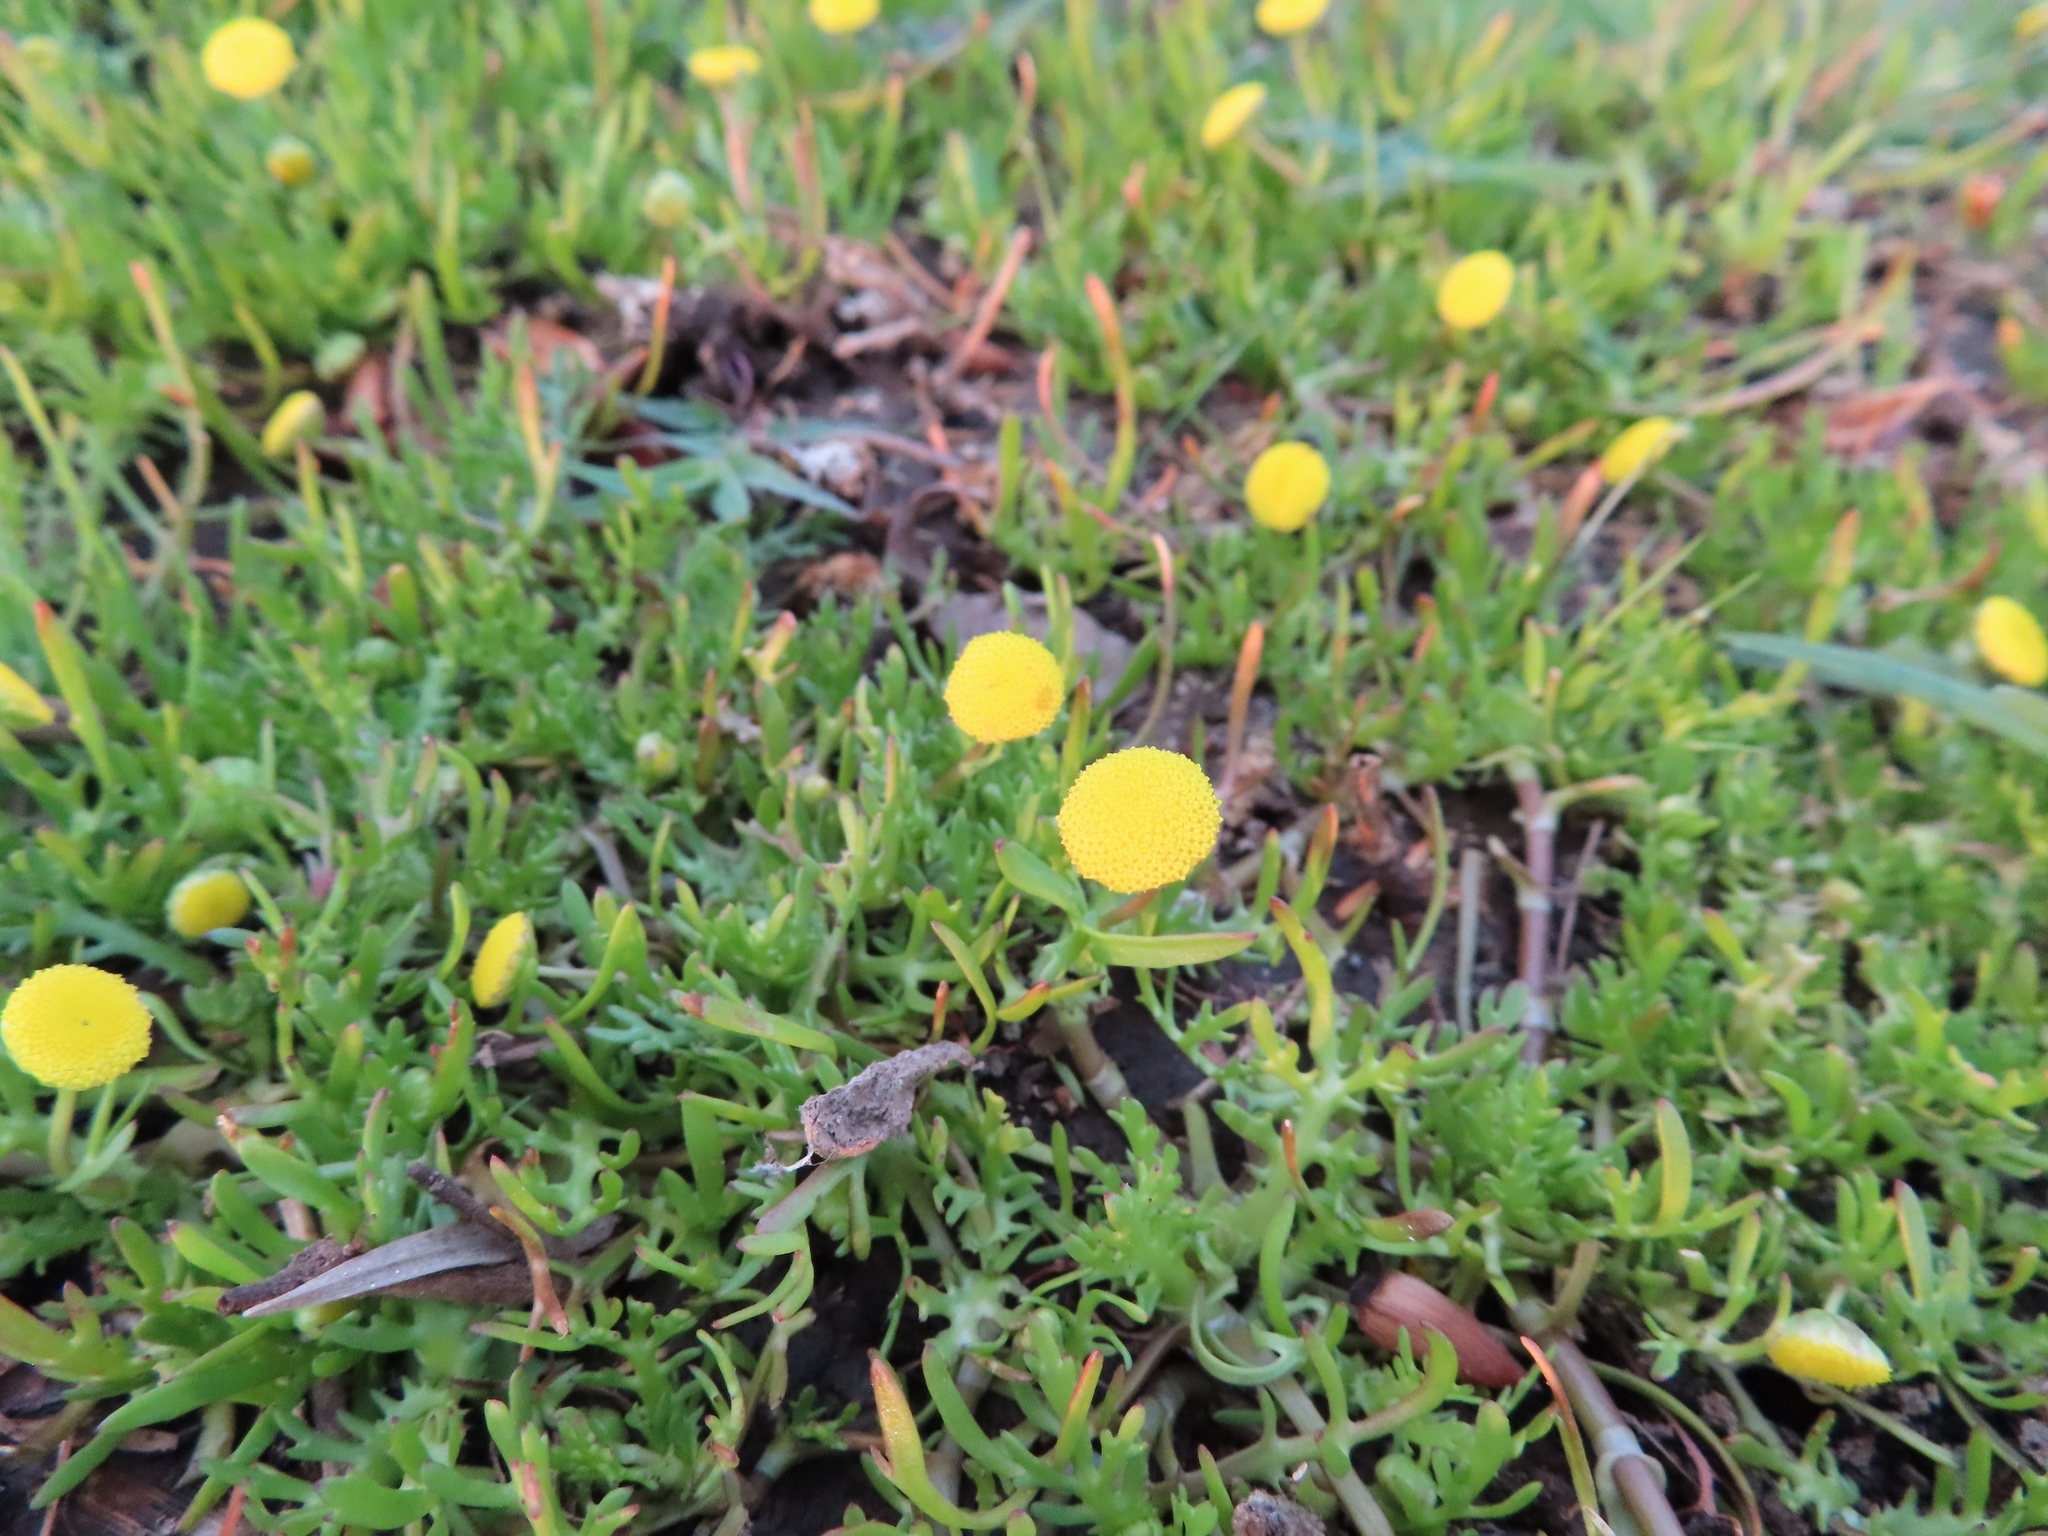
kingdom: Plantae
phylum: Tracheophyta
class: Magnoliopsida
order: Asterales
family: Asteraceae
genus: Cotula
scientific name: Cotula coronopifolia
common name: Buttonweed
